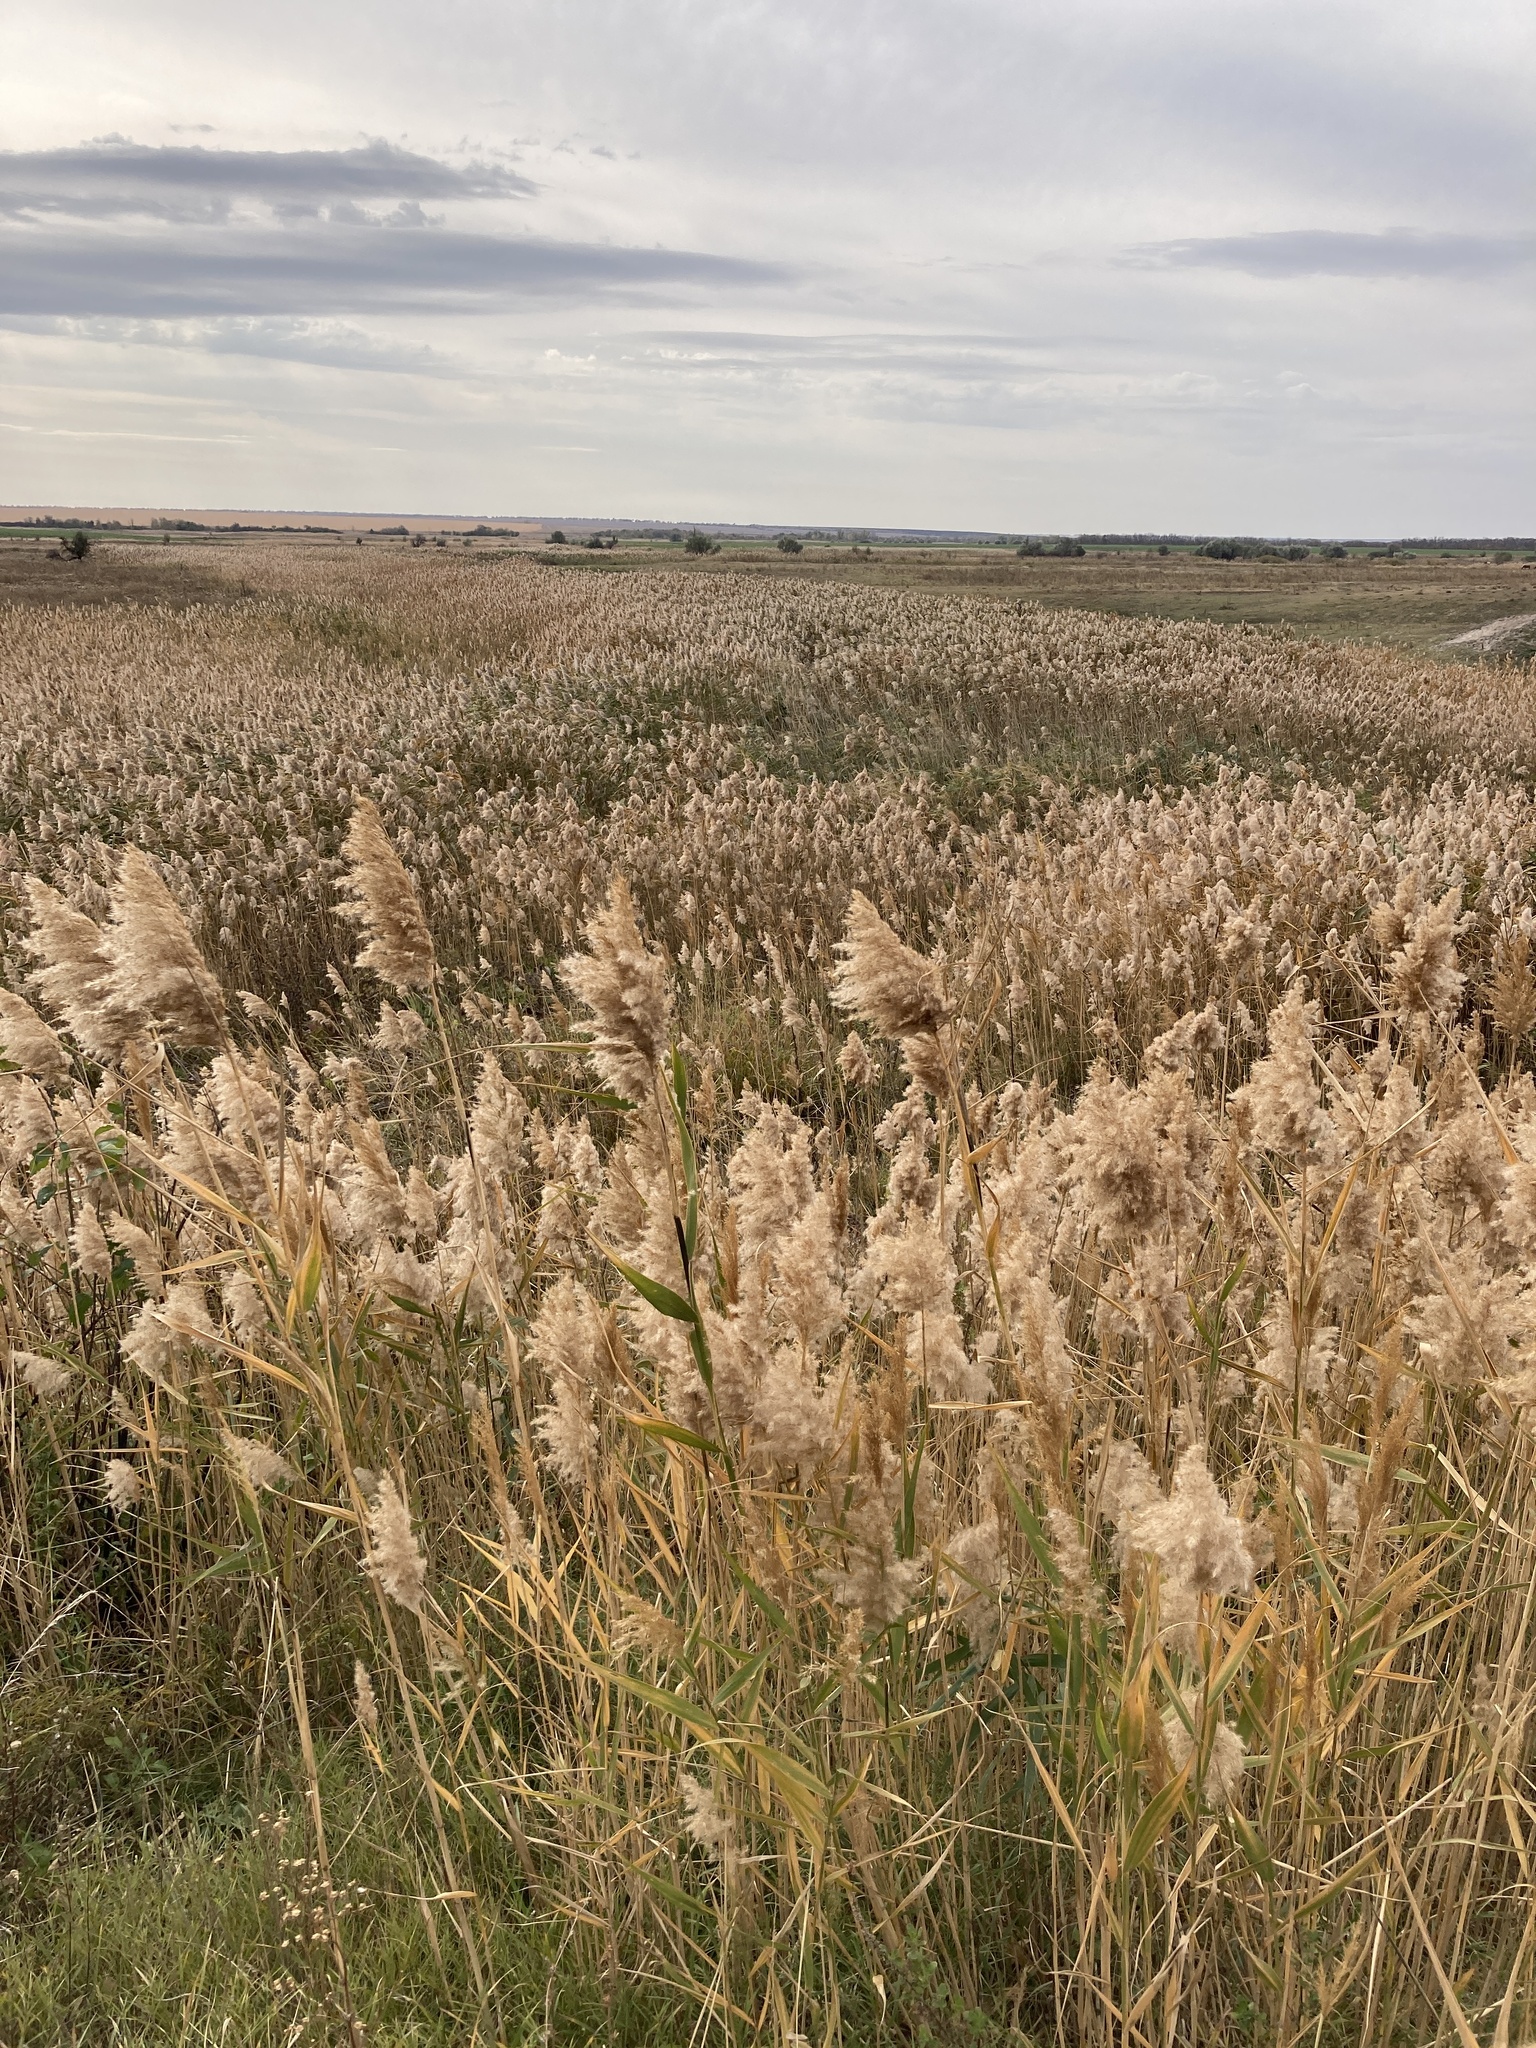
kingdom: Plantae
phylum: Tracheophyta
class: Liliopsida
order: Poales
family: Poaceae
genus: Phragmites
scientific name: Phragmites australis
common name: Common reed
